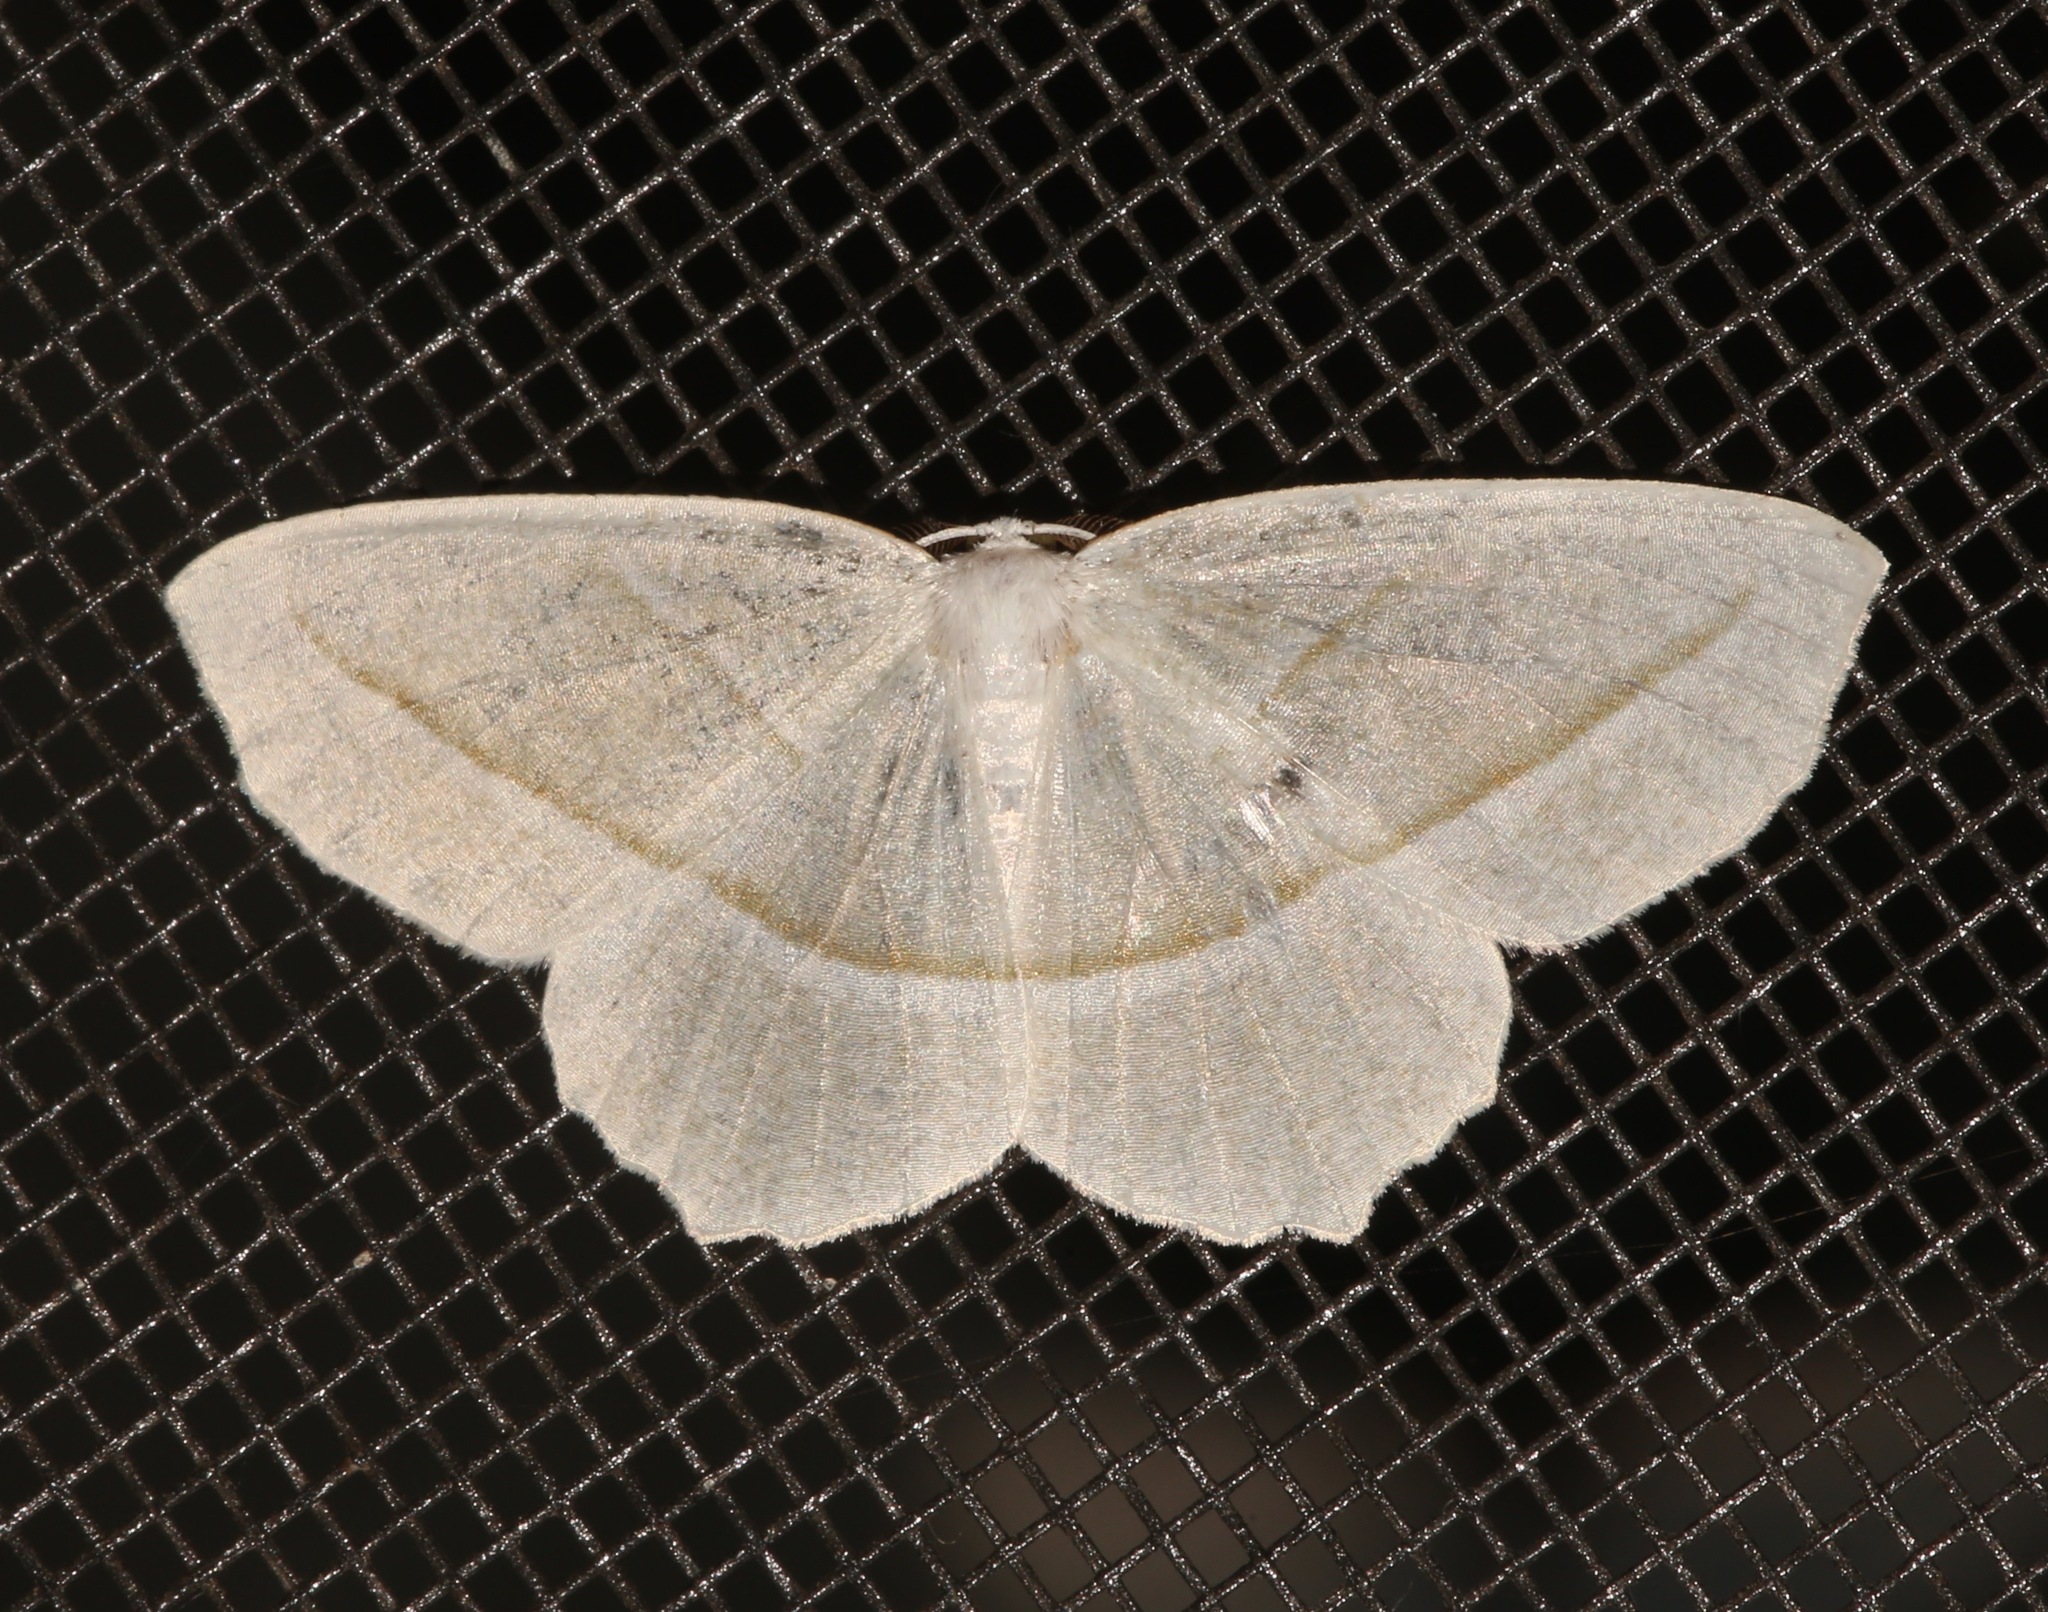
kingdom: Animalia
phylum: Arthropoda
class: Insecta
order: Lepidoptera
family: Geometridae
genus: Campaea
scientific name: Campaea perlata
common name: Fringed looper
